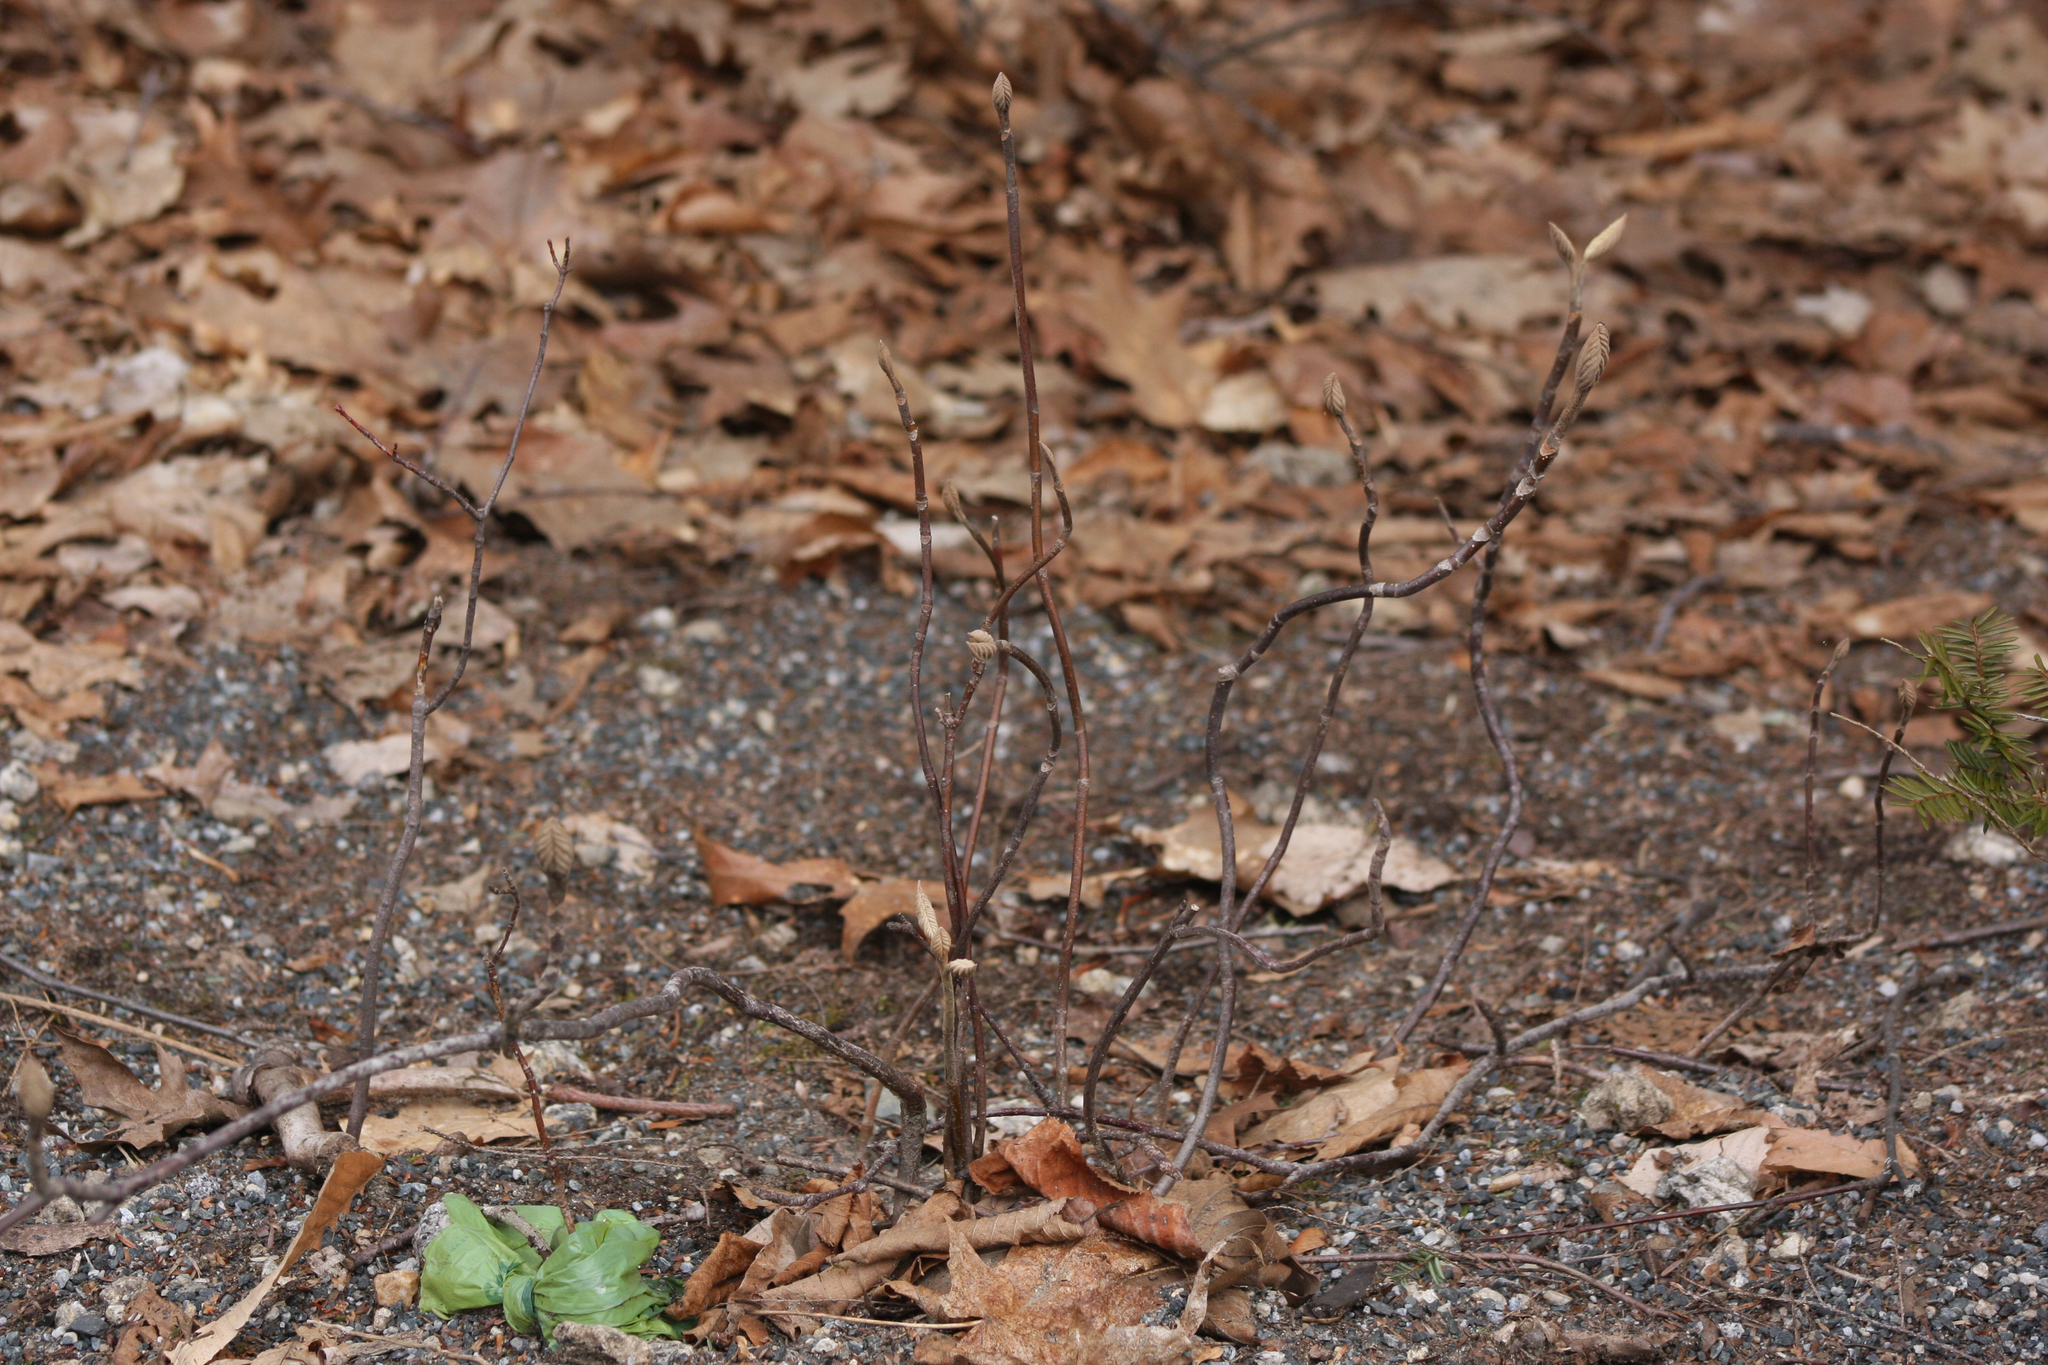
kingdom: Plantae
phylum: Tracheophyta
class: Magnoliopsida
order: Dipsacales
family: Viburnaceae
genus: Viburnum
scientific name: Viburnum lantanoides
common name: Hobblebush
